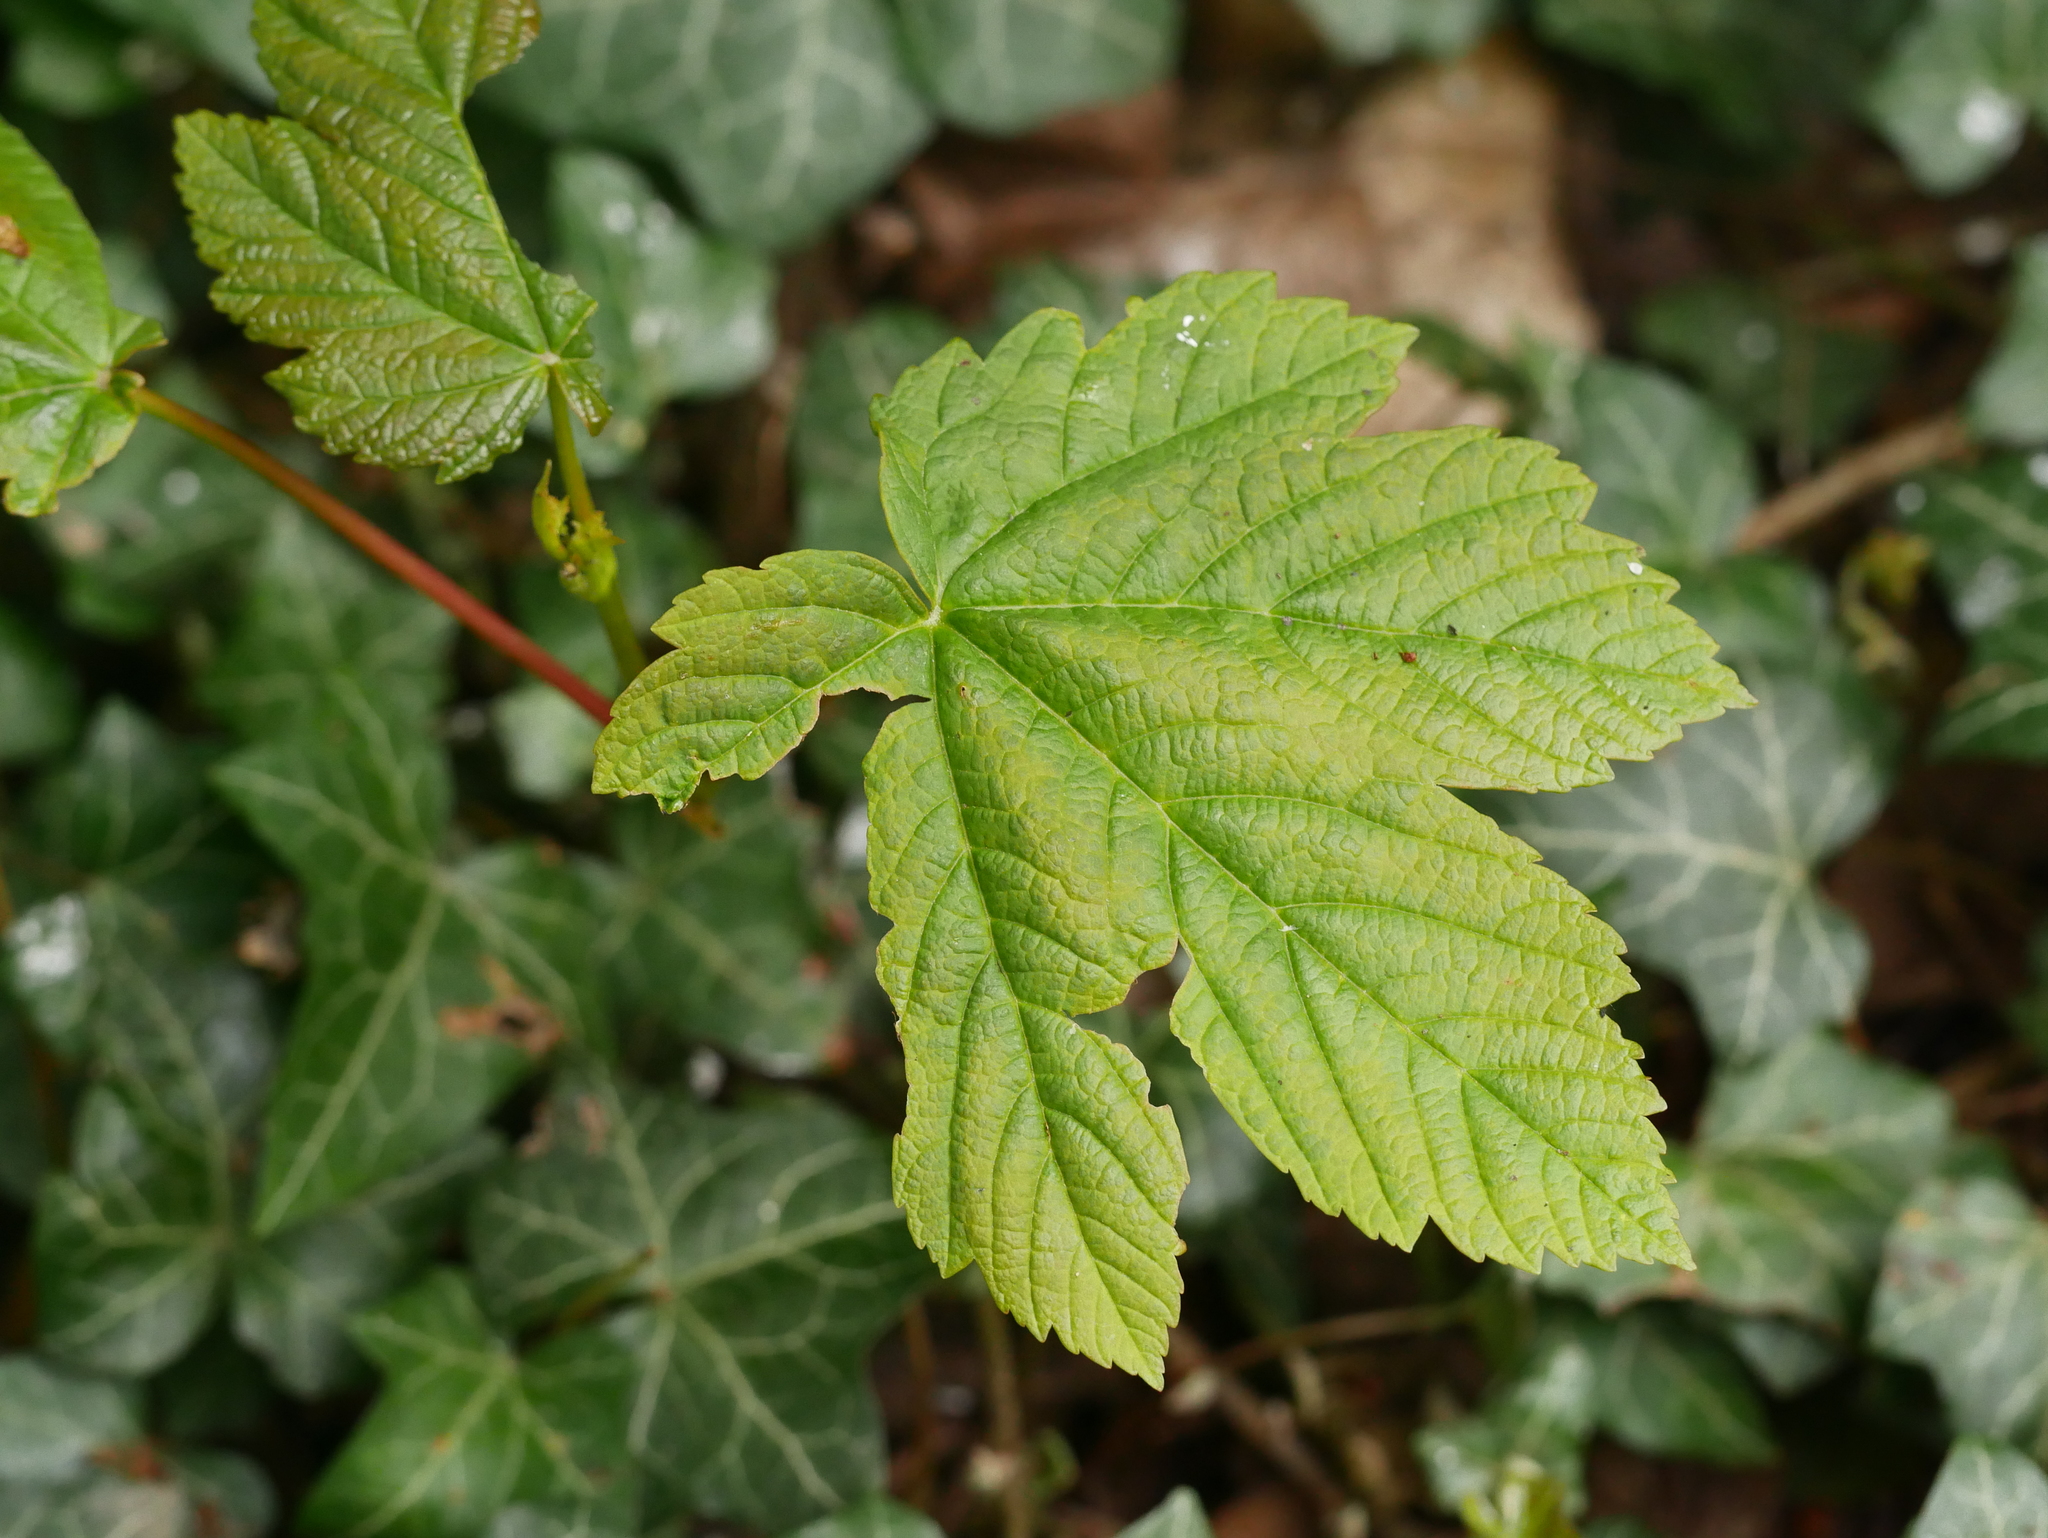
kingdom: Plantae
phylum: Tracheophyta
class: Magnoliopsida
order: Sapindales
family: Sapindaceae
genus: Acer
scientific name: Acer pseudoplatanus
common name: Sycamore
